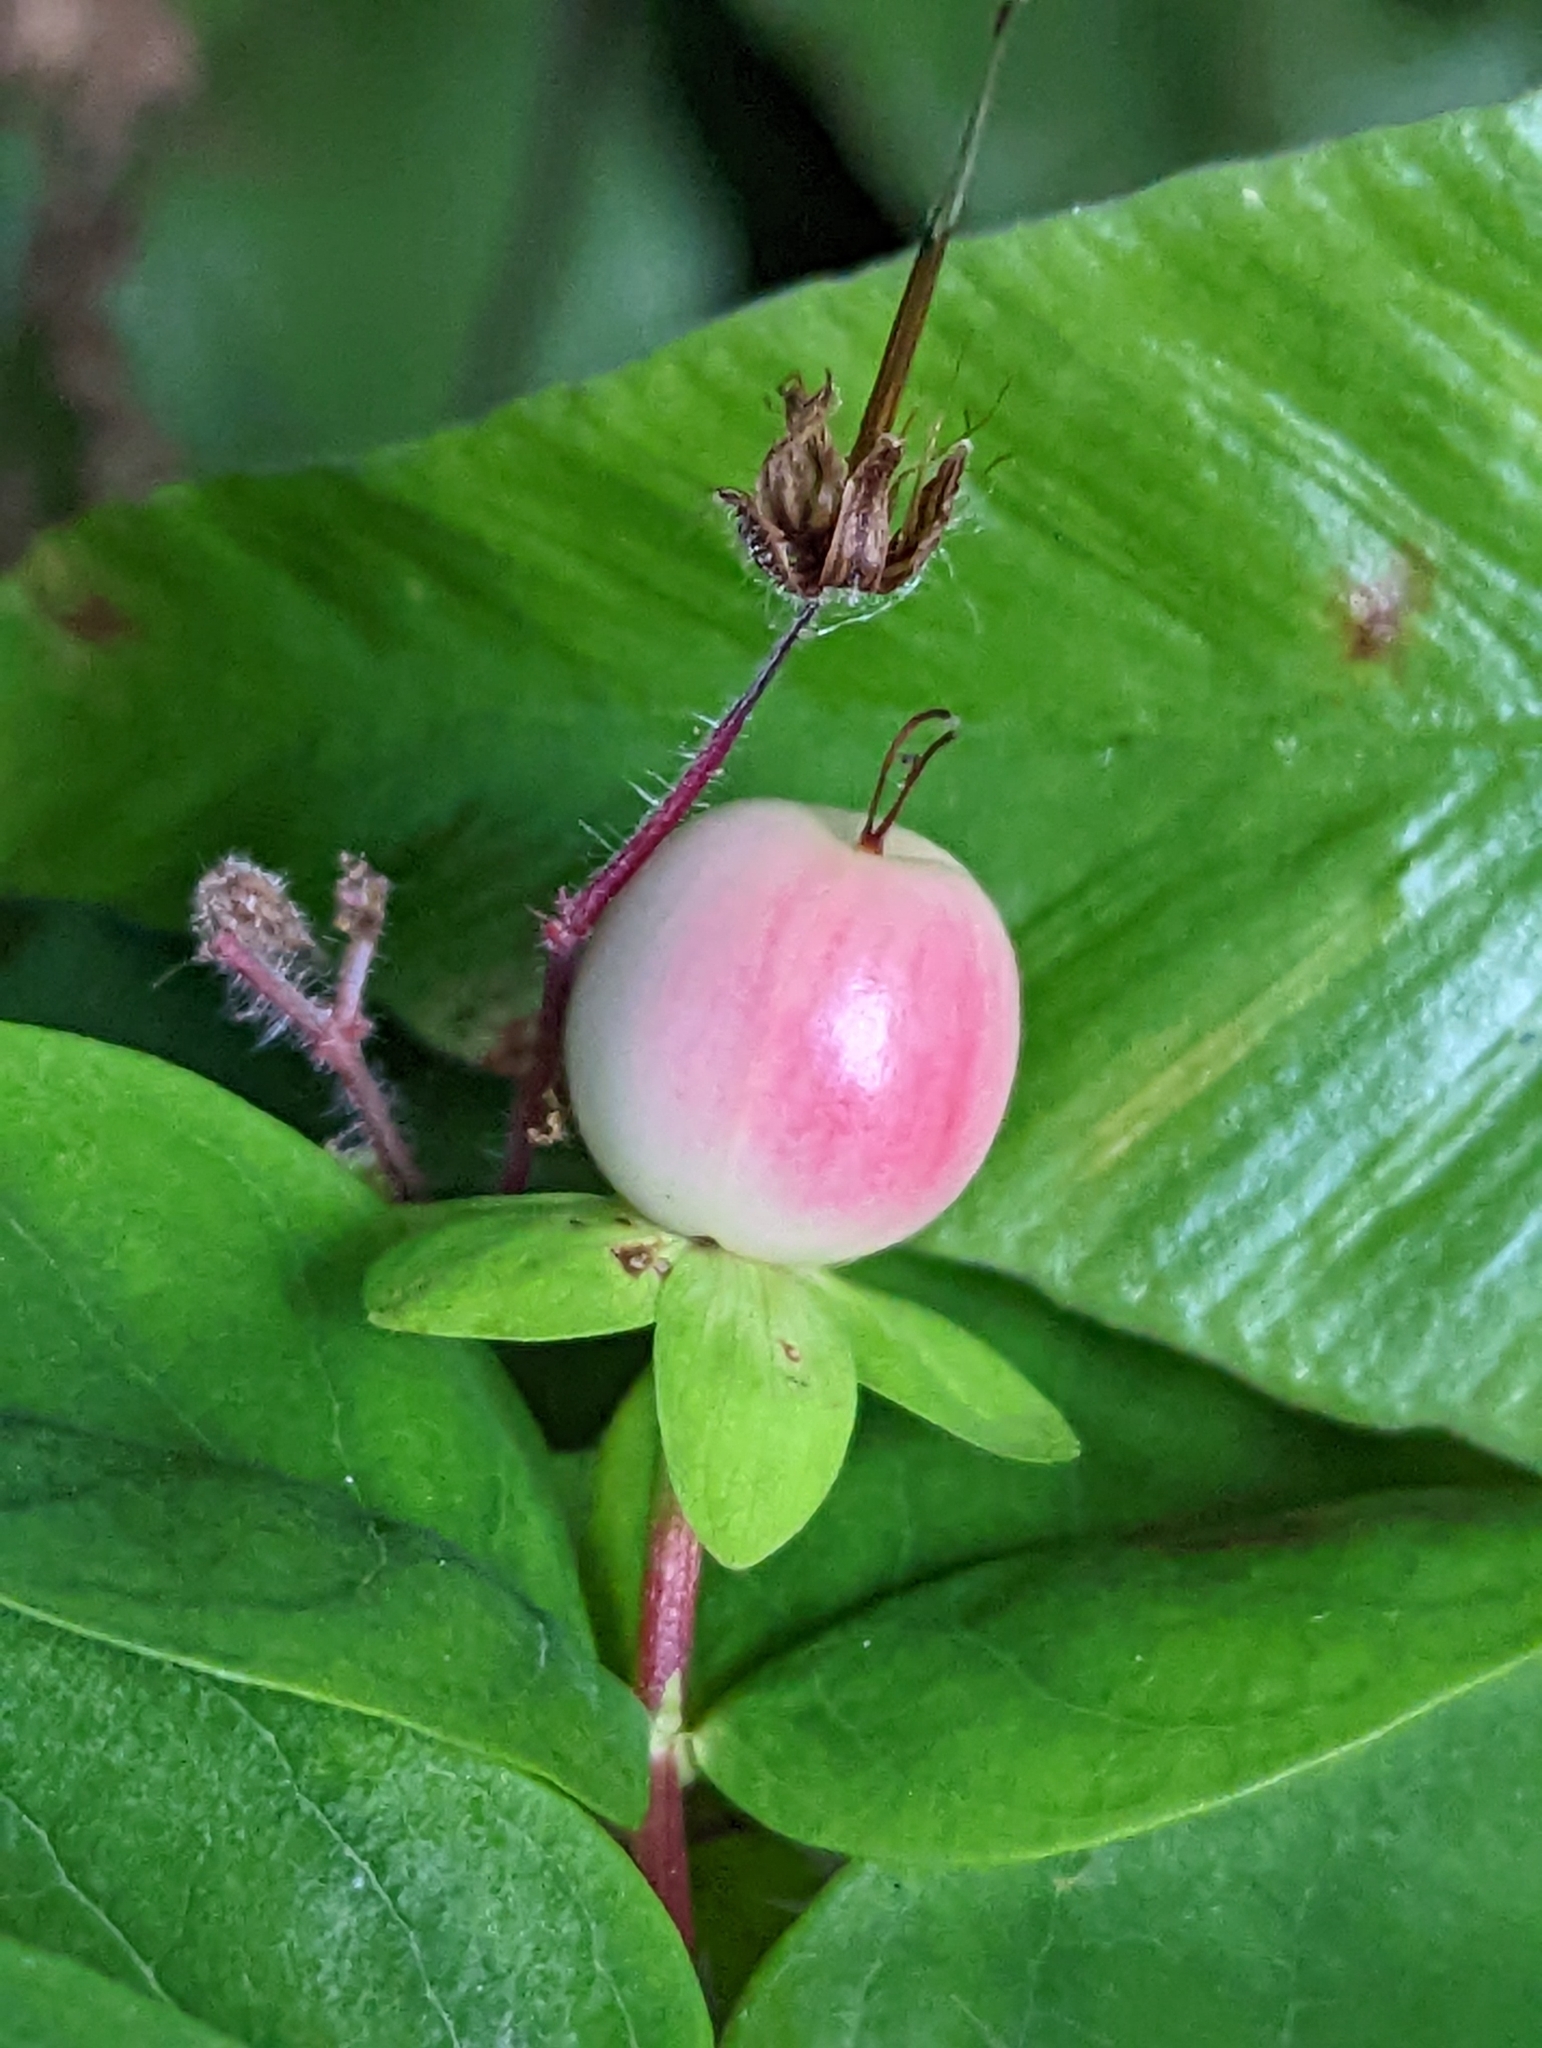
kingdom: Plantae
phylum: Tracheophyta
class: Magnoliopsida
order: Malpighiales
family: Hypericaceae
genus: Hypericum
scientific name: Hypericum androsaemum
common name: Sweet-amber
